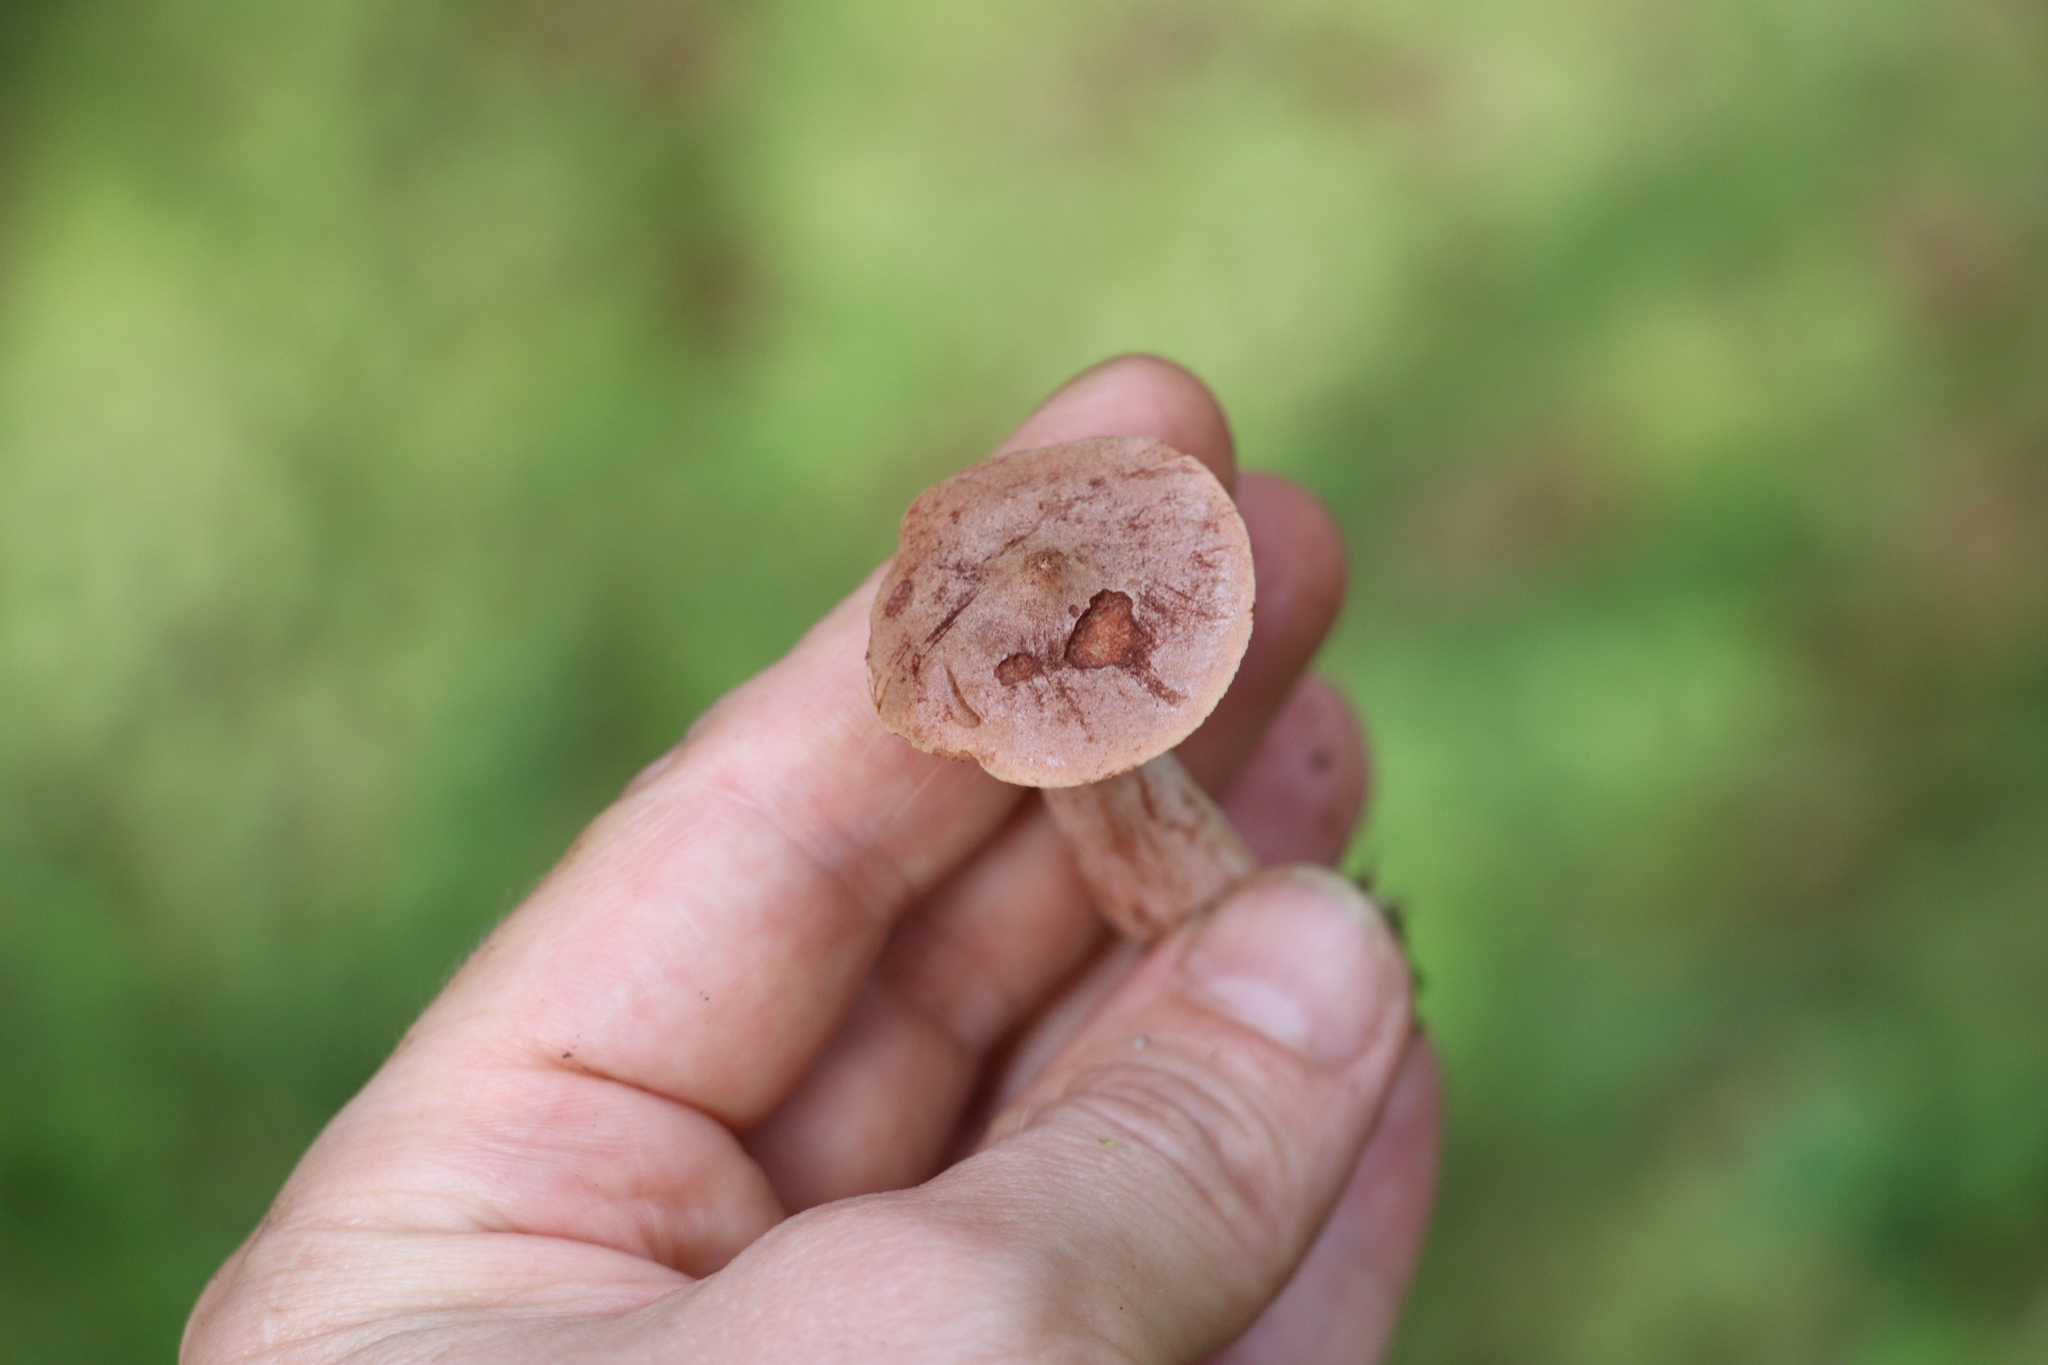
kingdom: Fungi
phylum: Basidiomycota
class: Agaricomycetes
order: Russulales
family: Russulaceae
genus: Lactarius
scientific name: Lactarius rufus
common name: Rufous milk-cap
